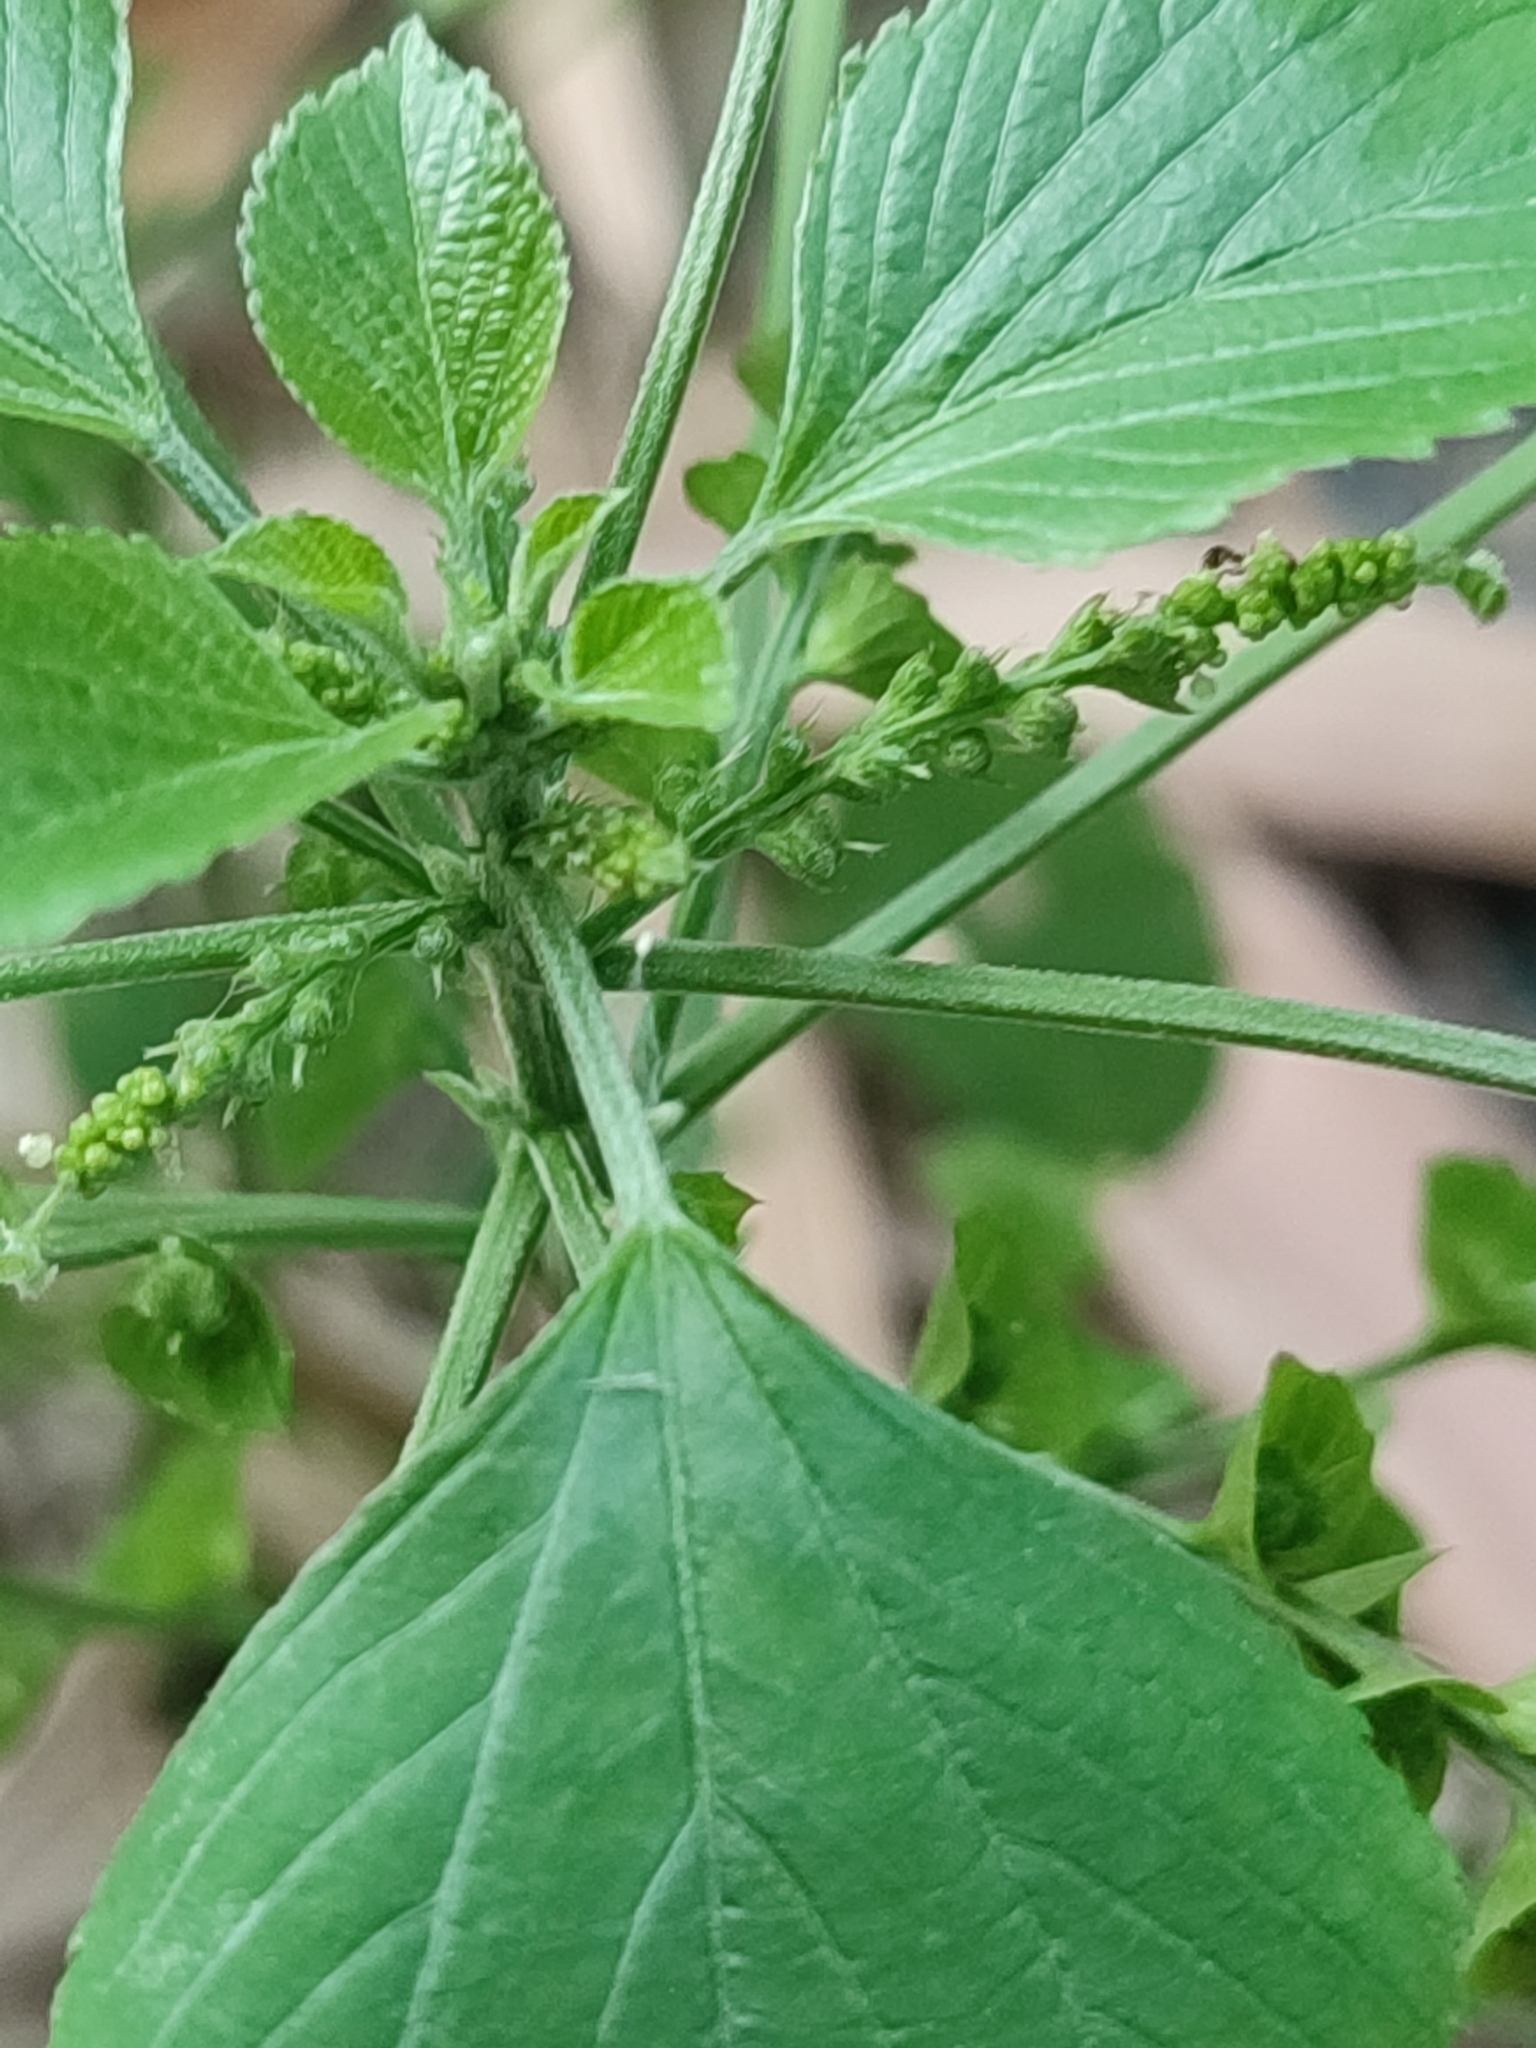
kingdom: Plantae
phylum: Tracheophyta
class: Magnoliopsida
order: Malpighiales
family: Euphorbiaceae
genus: Acalypha
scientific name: Acalypha indica
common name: Indian acalypha
